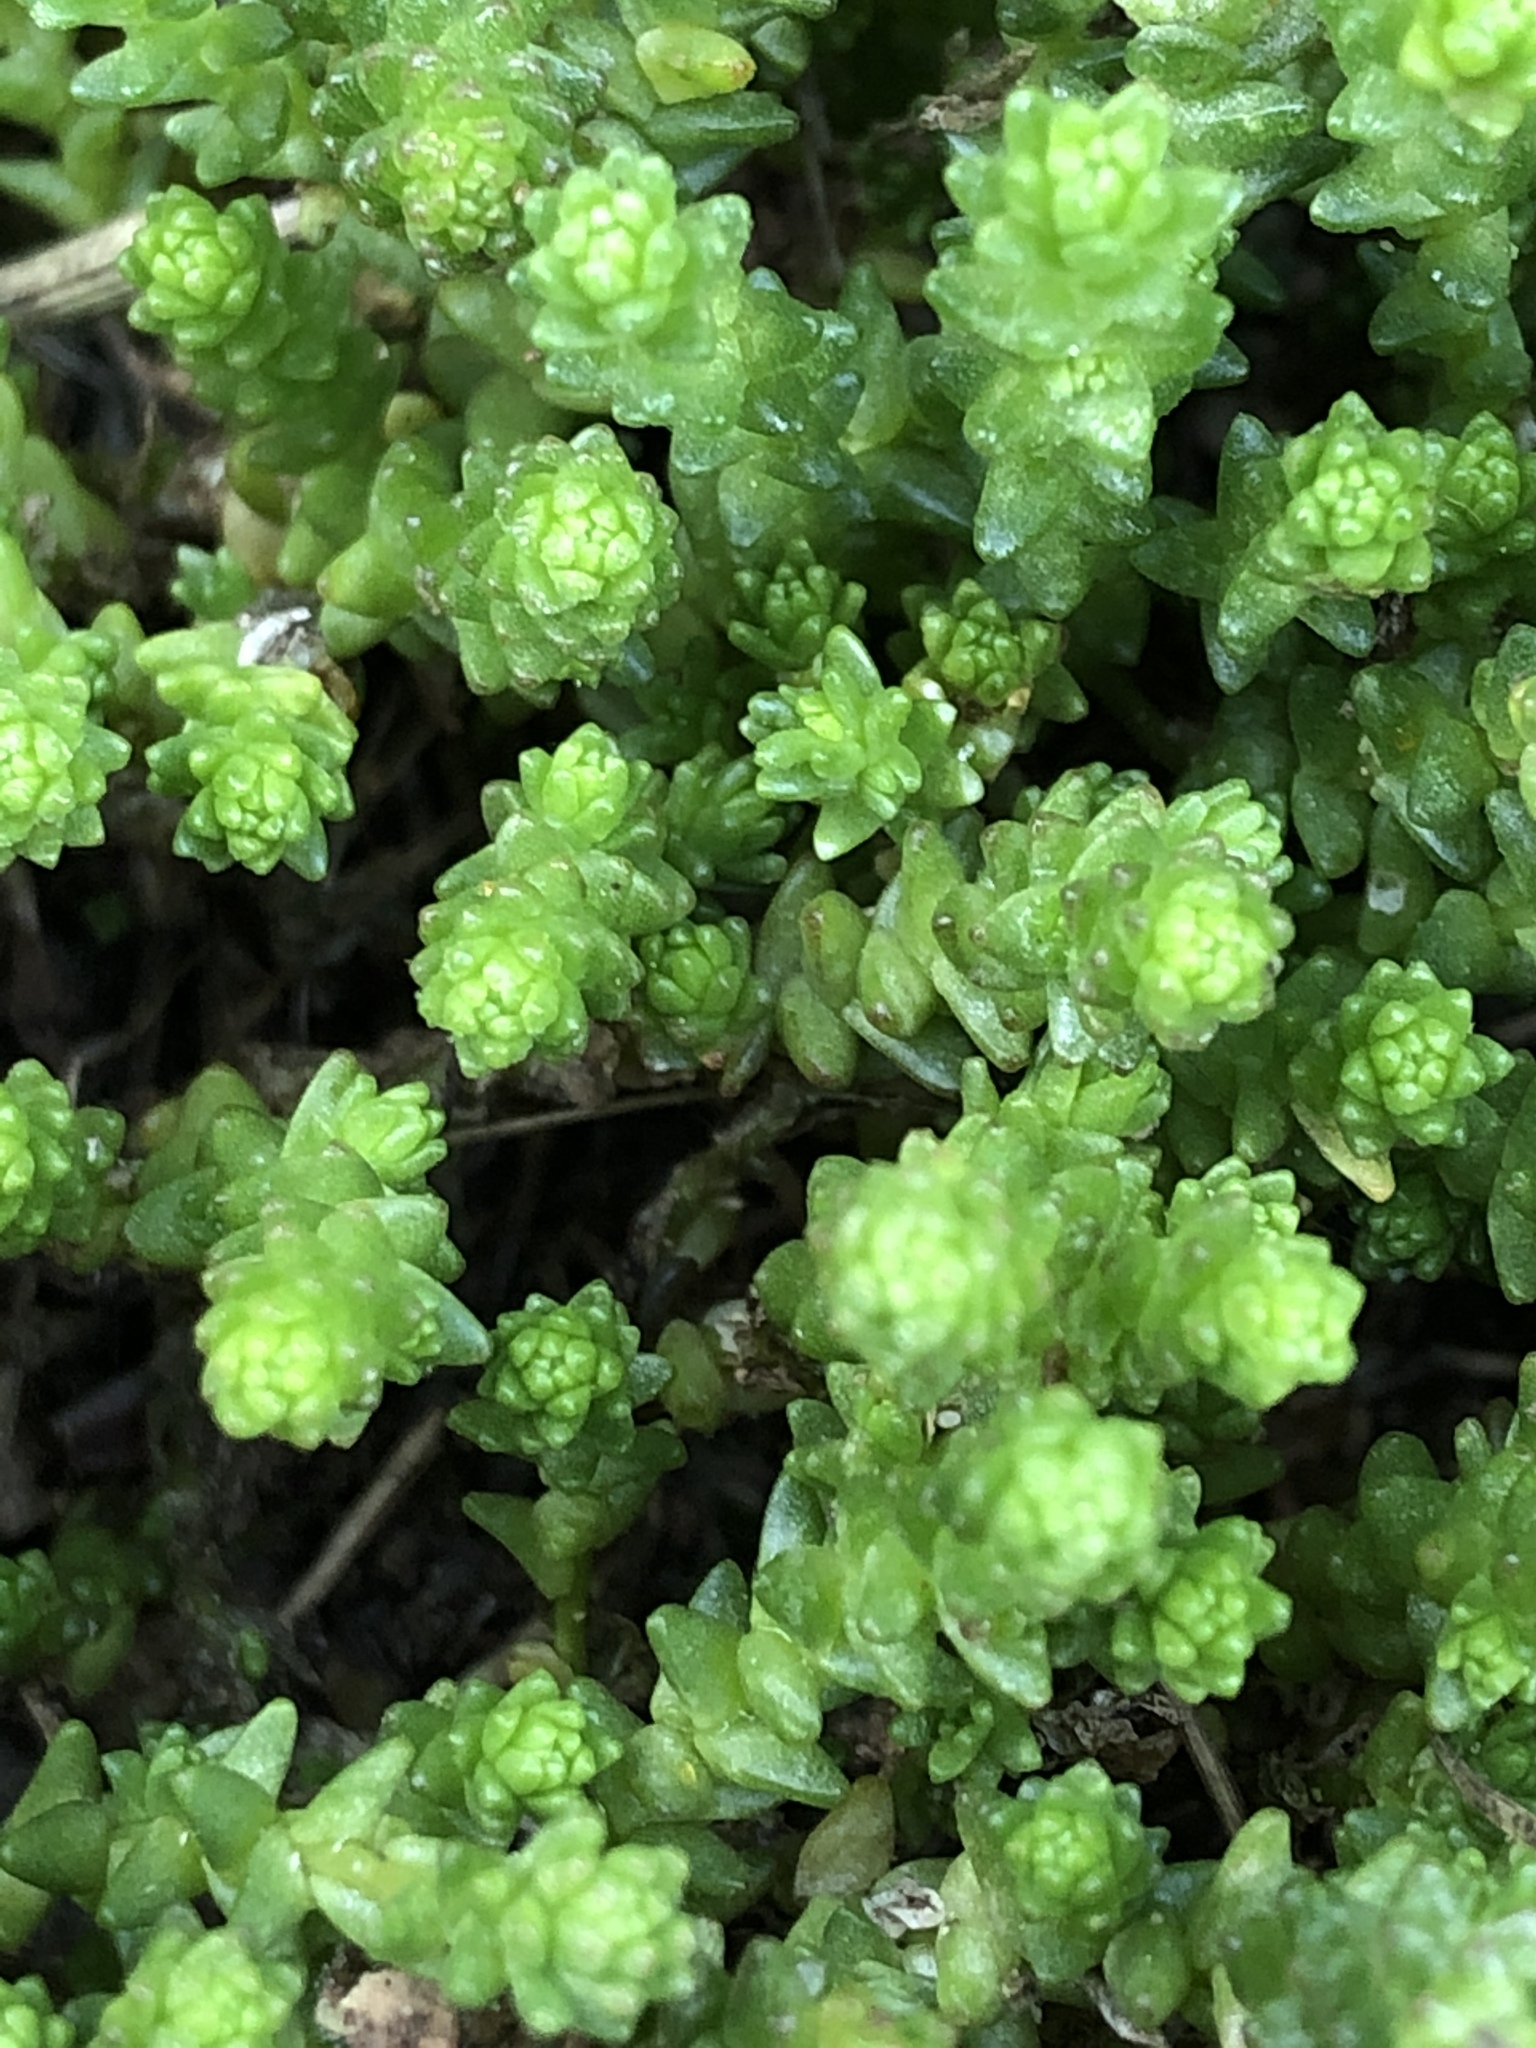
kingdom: Plantae
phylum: Tracheophyta
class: Magnoliopsida
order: Saxifragales
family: Crassulaceae
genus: Sedum
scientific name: Sedum acre
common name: Biting stonecrop
